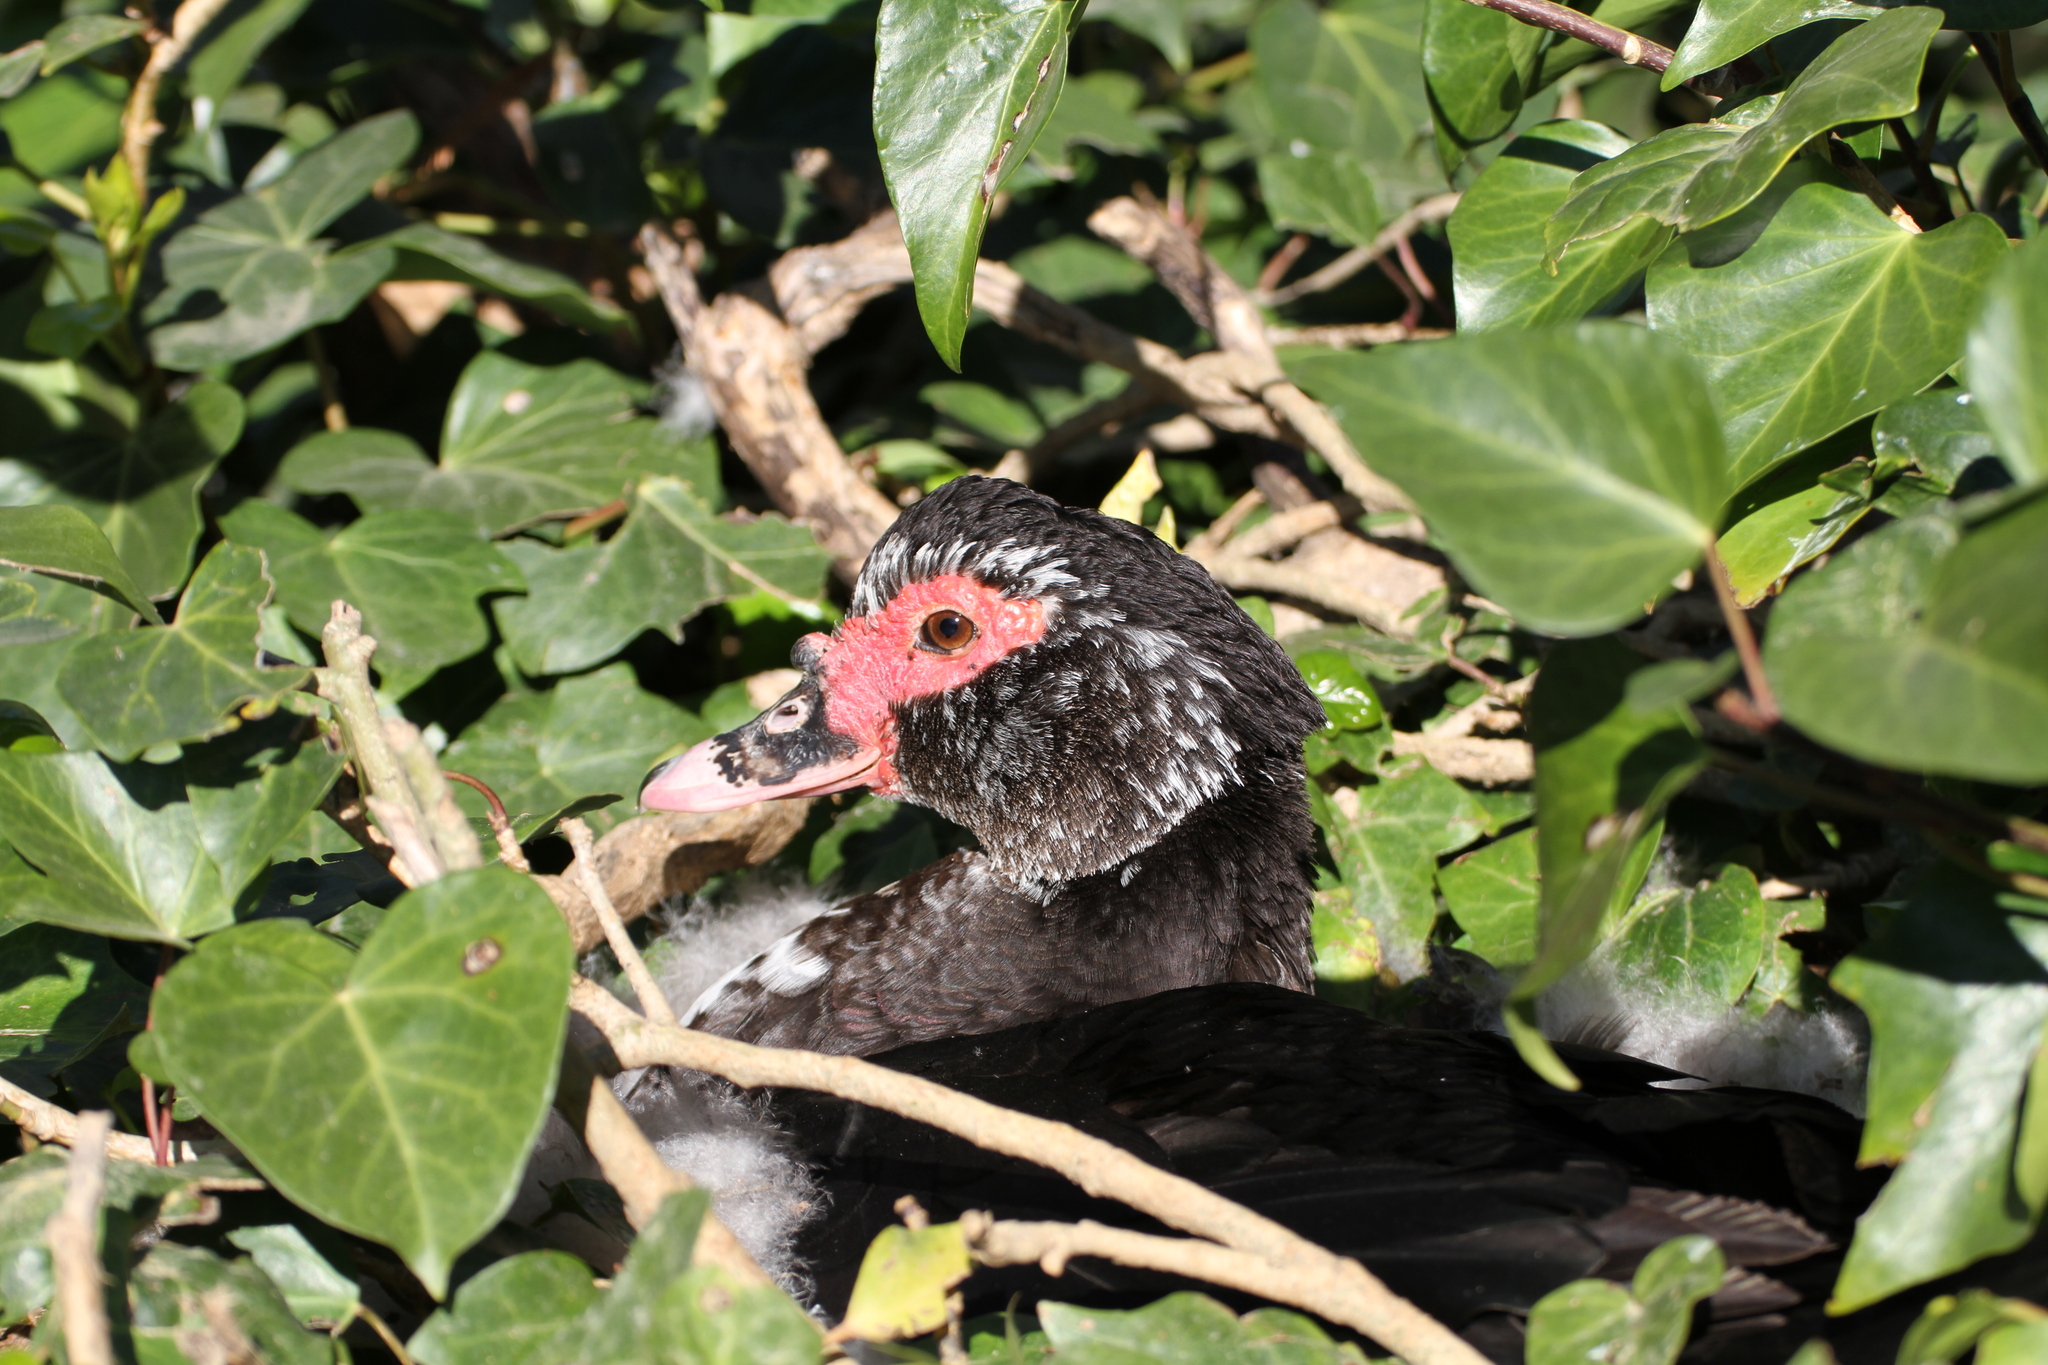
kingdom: Animalia
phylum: Chordata
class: Aves
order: Anseriformes
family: Anatidae
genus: Cairina
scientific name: Cairina moschata
